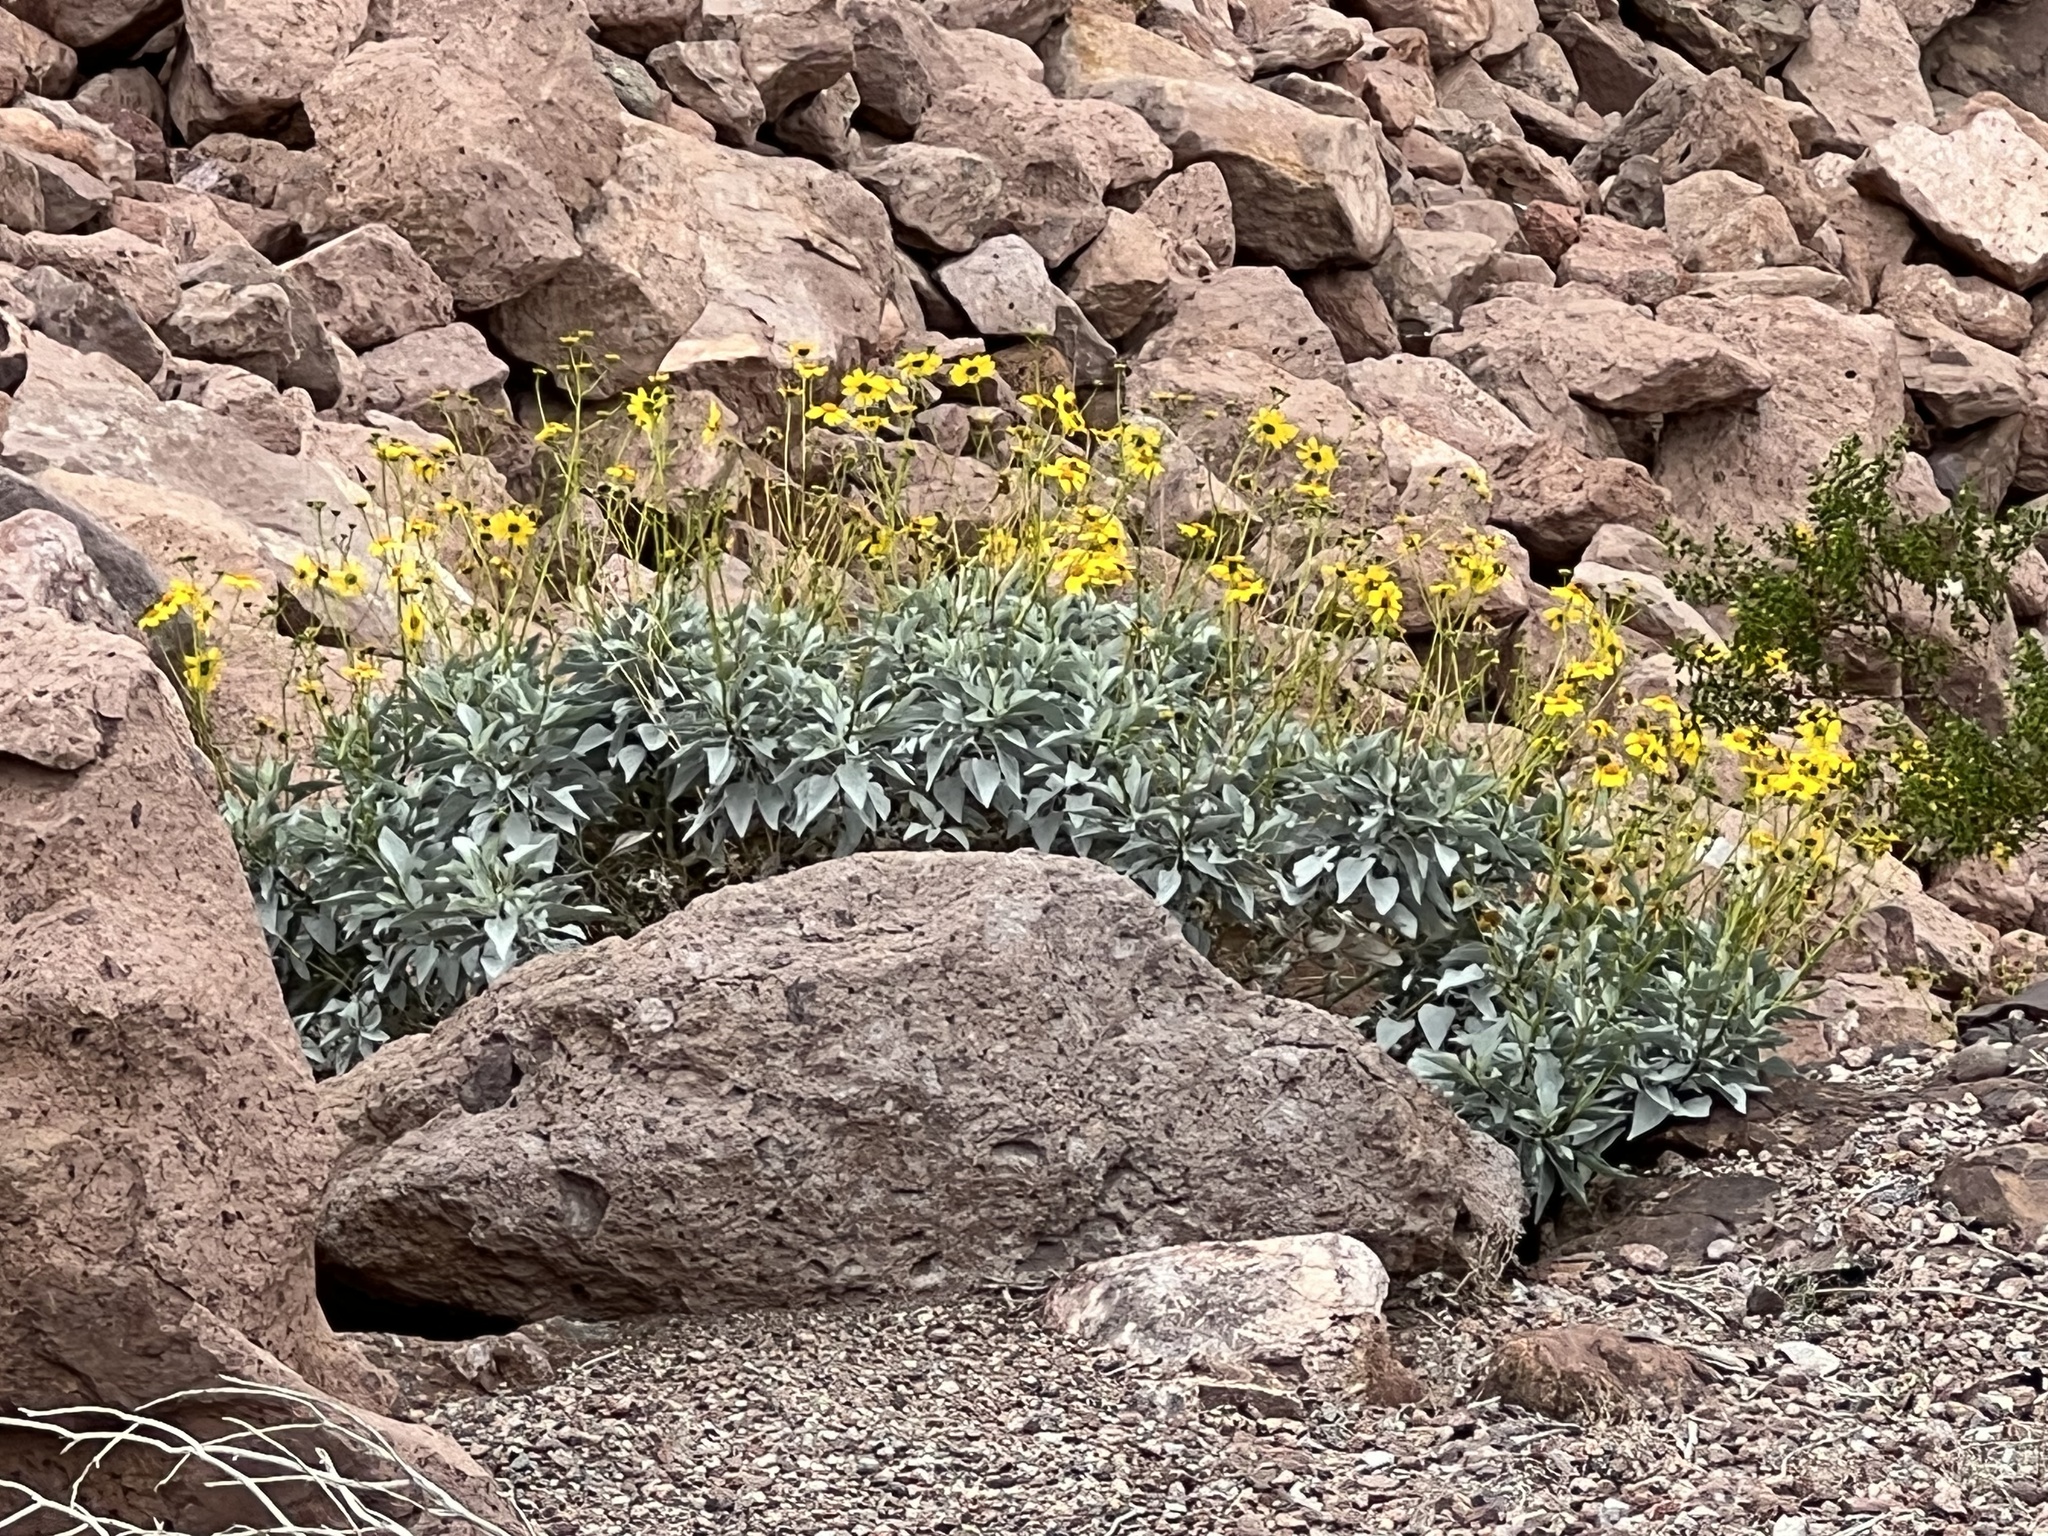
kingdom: Plantae
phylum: Tracheophyta
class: Magnoliopsida
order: Asterales
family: Asteraceae
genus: Encelia
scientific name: Encelia farinosa
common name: Brittlebush
